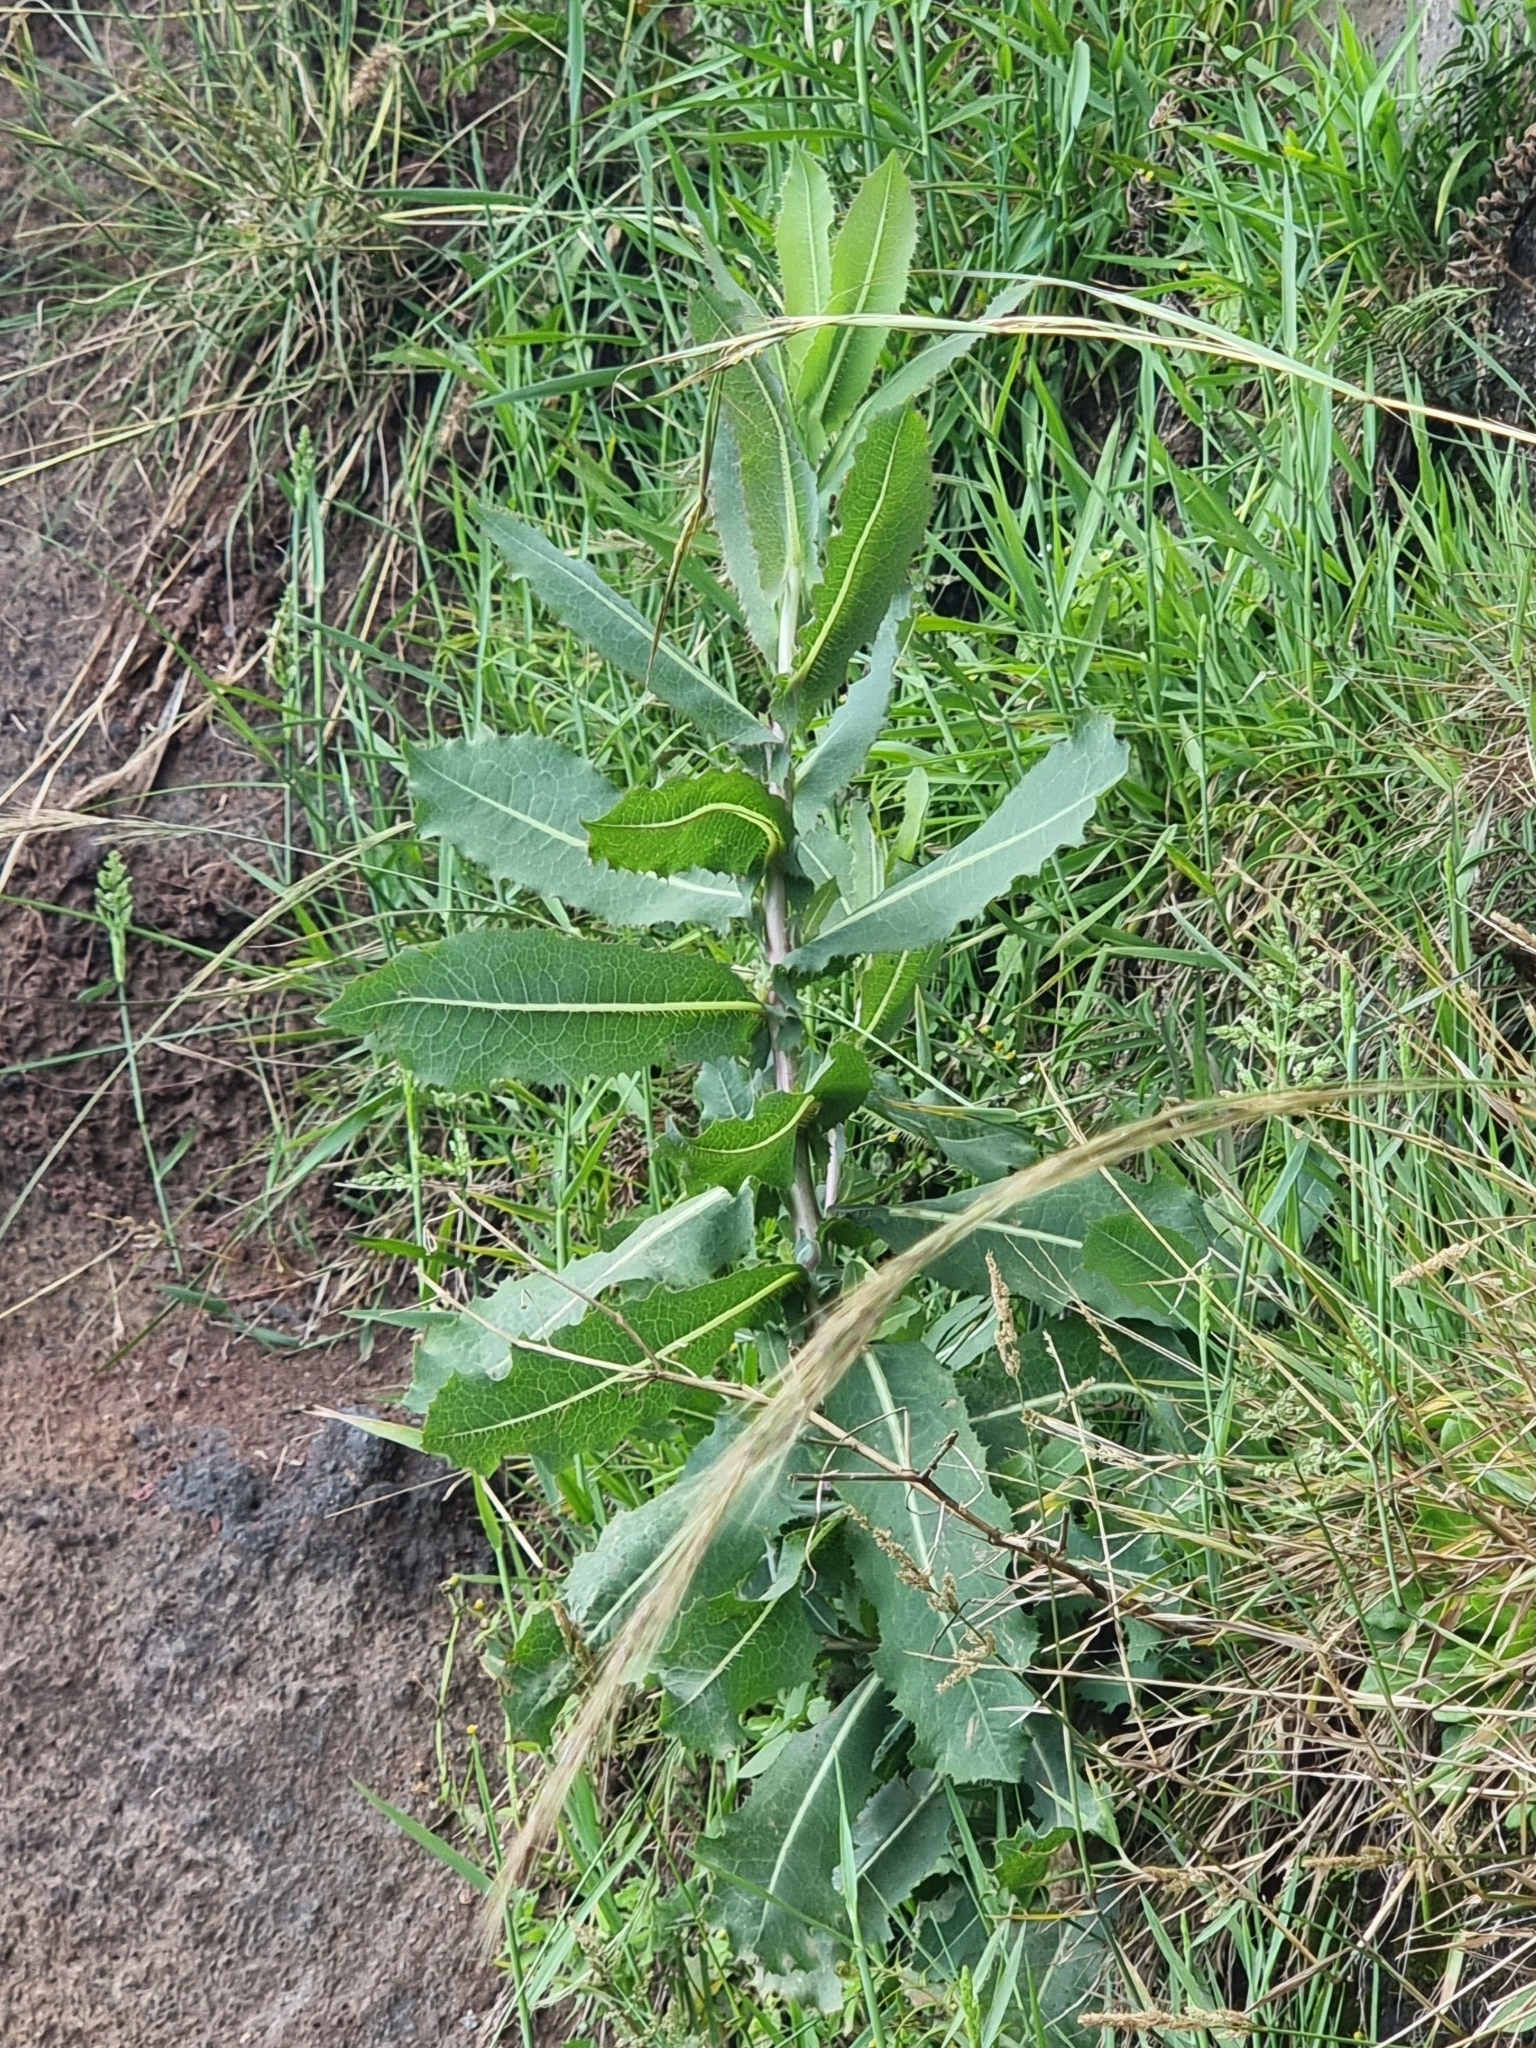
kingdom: Plantae
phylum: Tracheophyta
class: Magnoliopsida
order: Asterales
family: Asteraceae
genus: Lactuca
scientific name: Lactuca serriola
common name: Prickly lettuce
